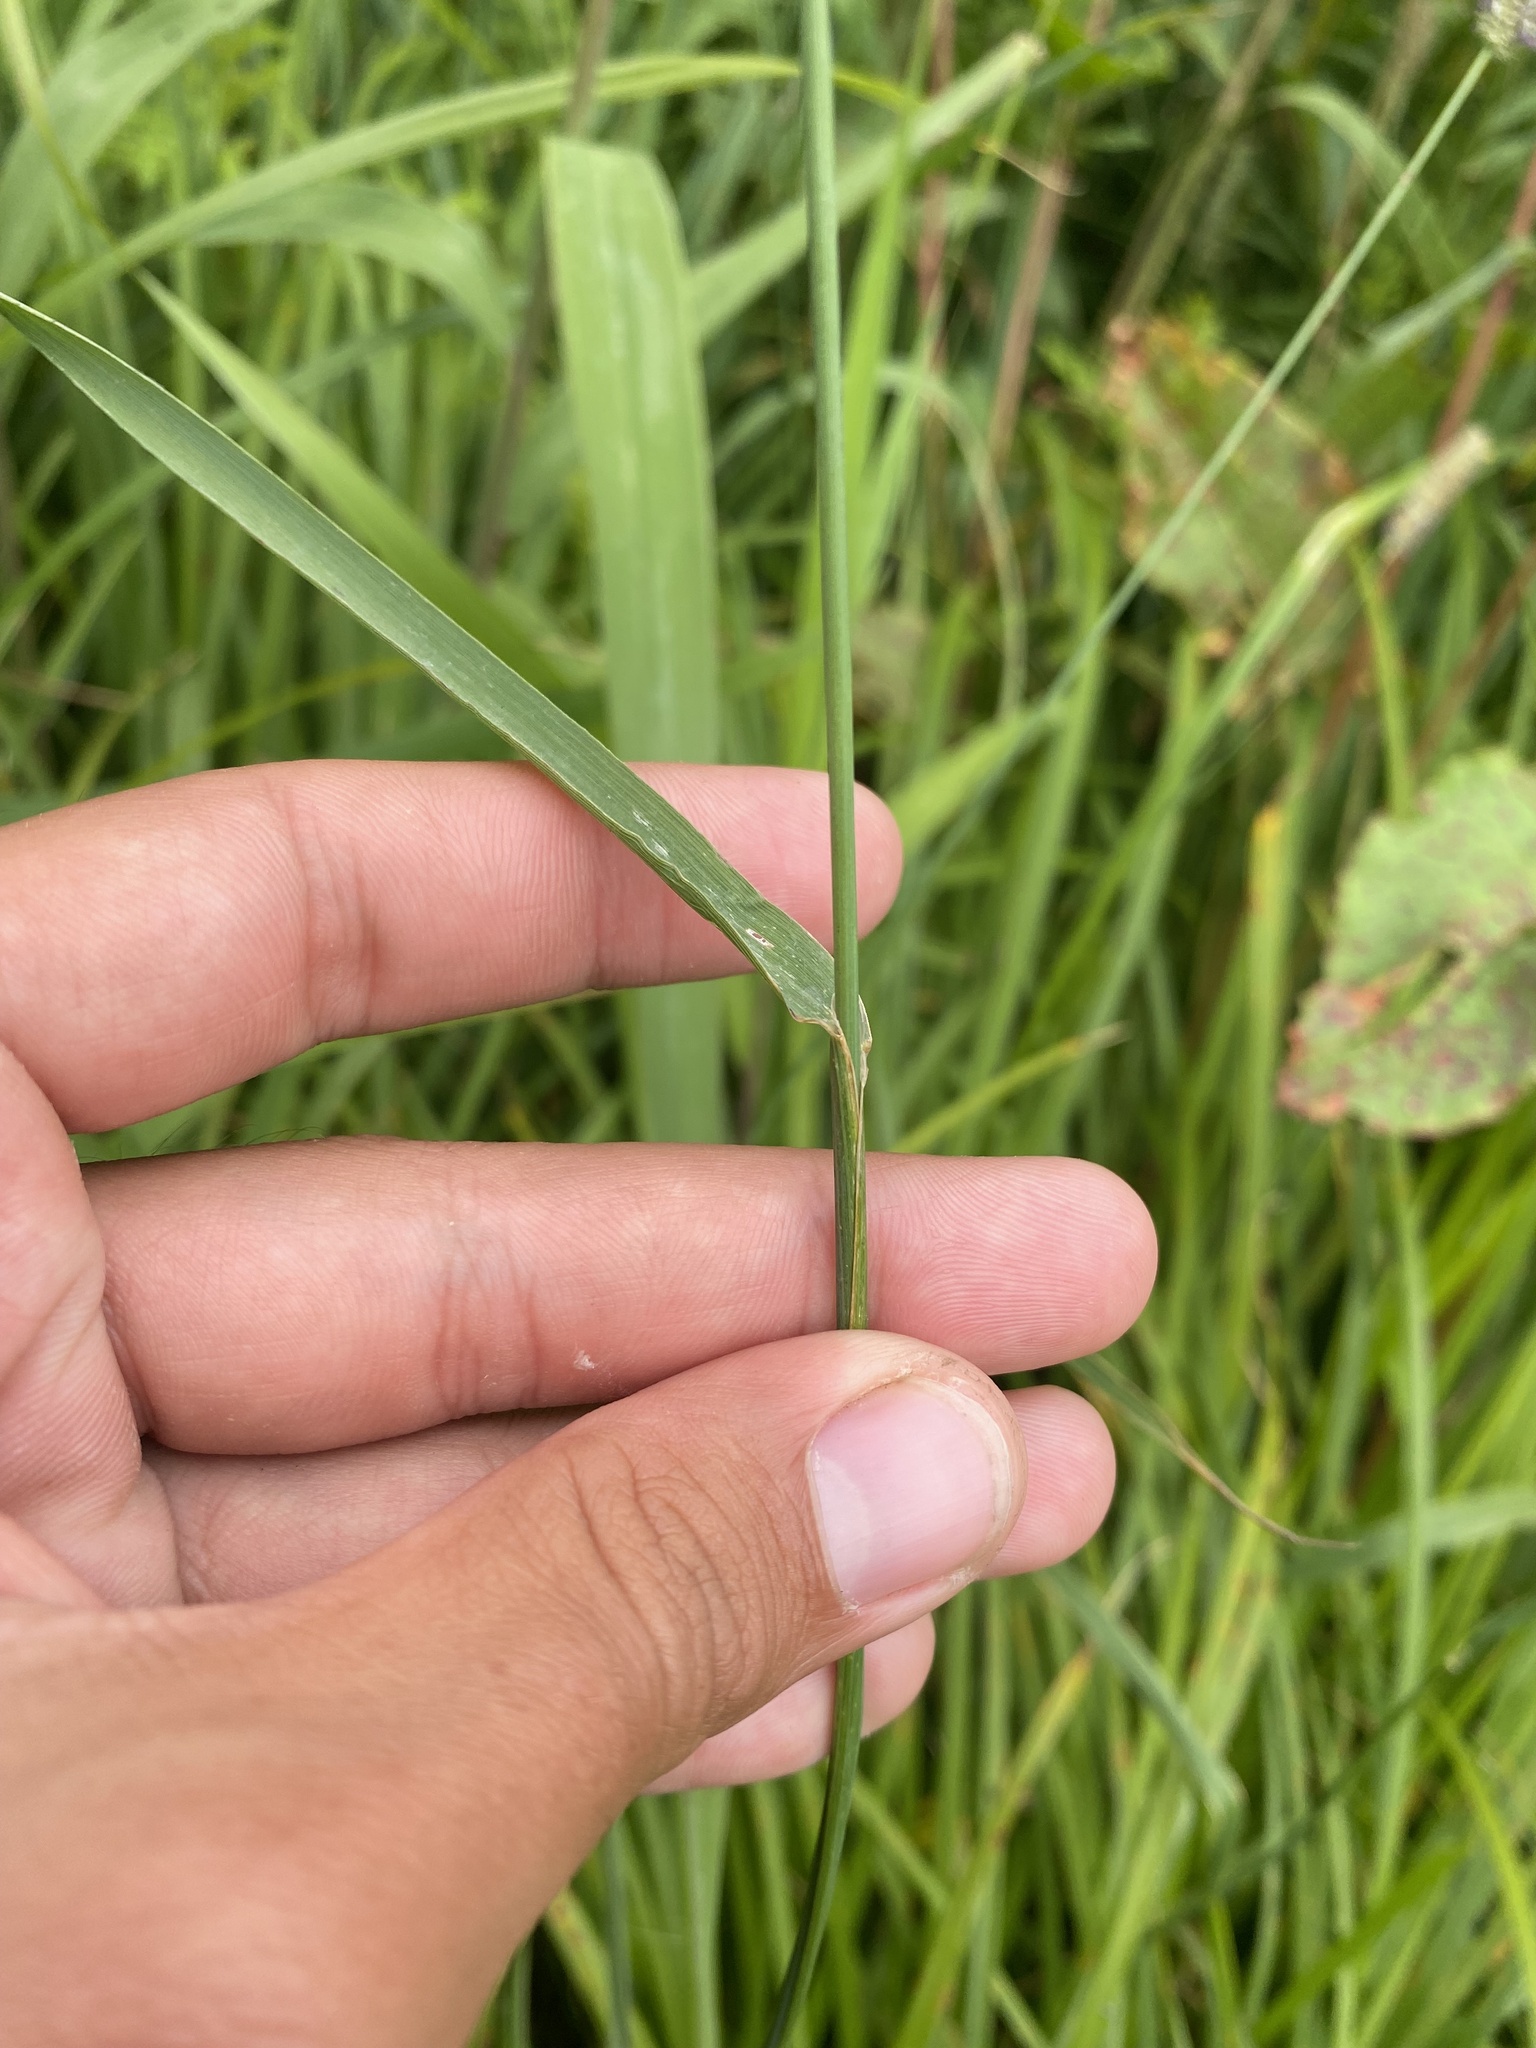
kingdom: Plantae
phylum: Tracheophyta
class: Liliopsida
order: Poales
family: Poaceae
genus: Phleum
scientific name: Phleum pratense
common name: Timothy grass
